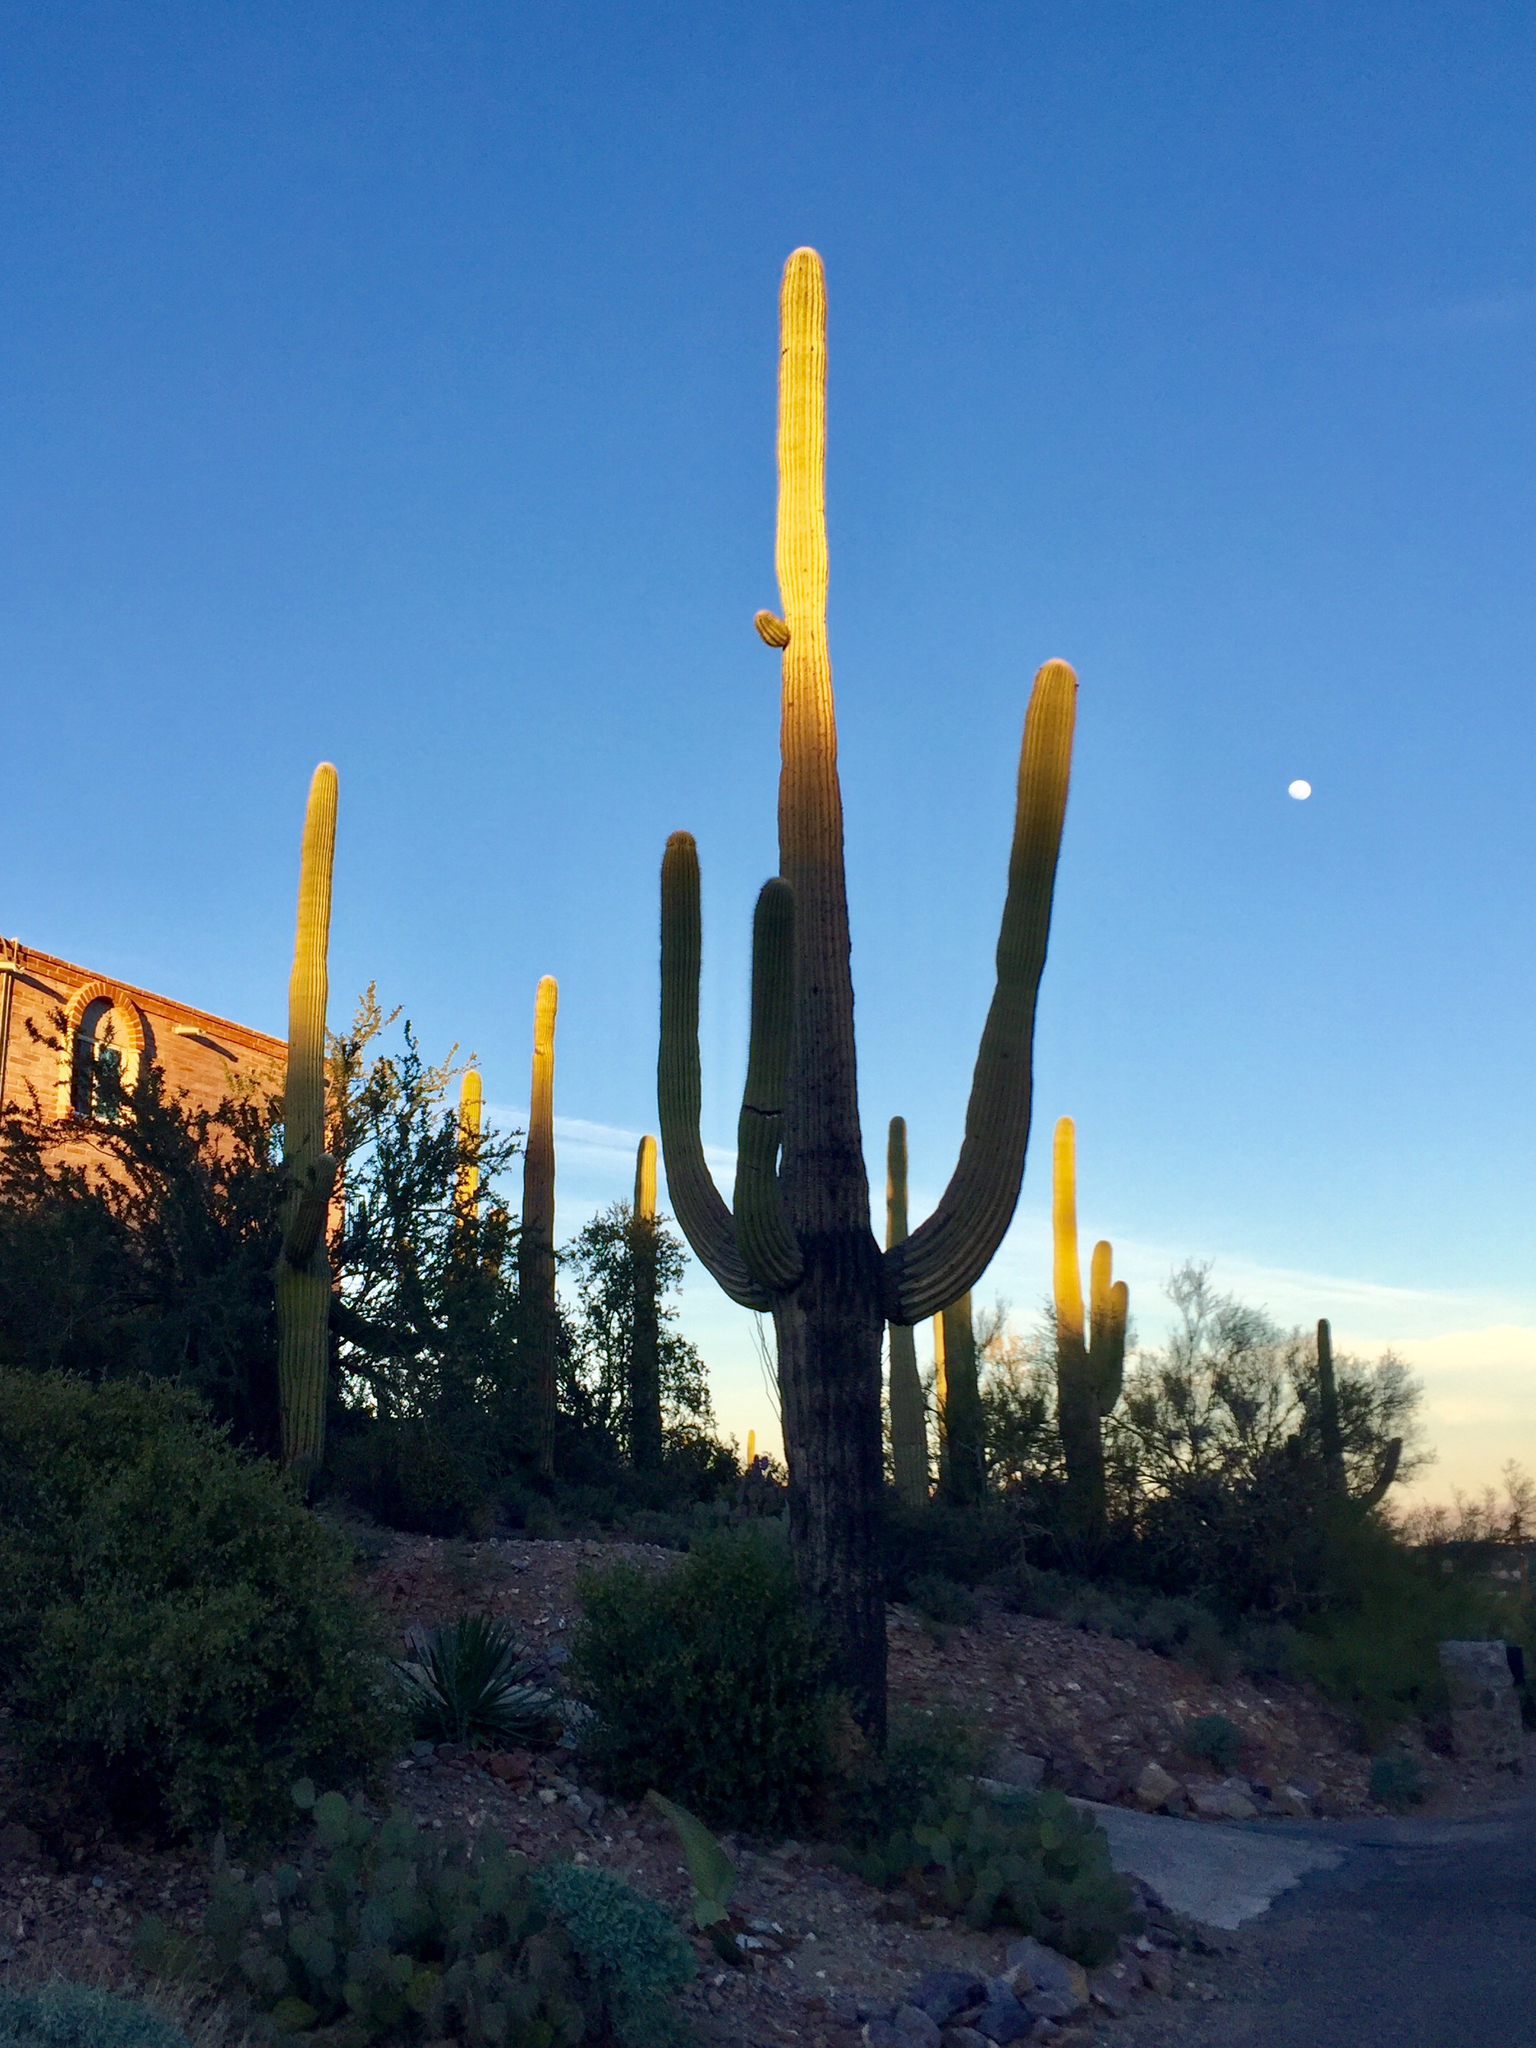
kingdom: Plantae
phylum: Tracheophyta
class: Magnoliopsida
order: Caryophyllales
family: Cactaceae
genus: Carnegiea
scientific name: Carnegiea gigantea
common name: Saguaro
